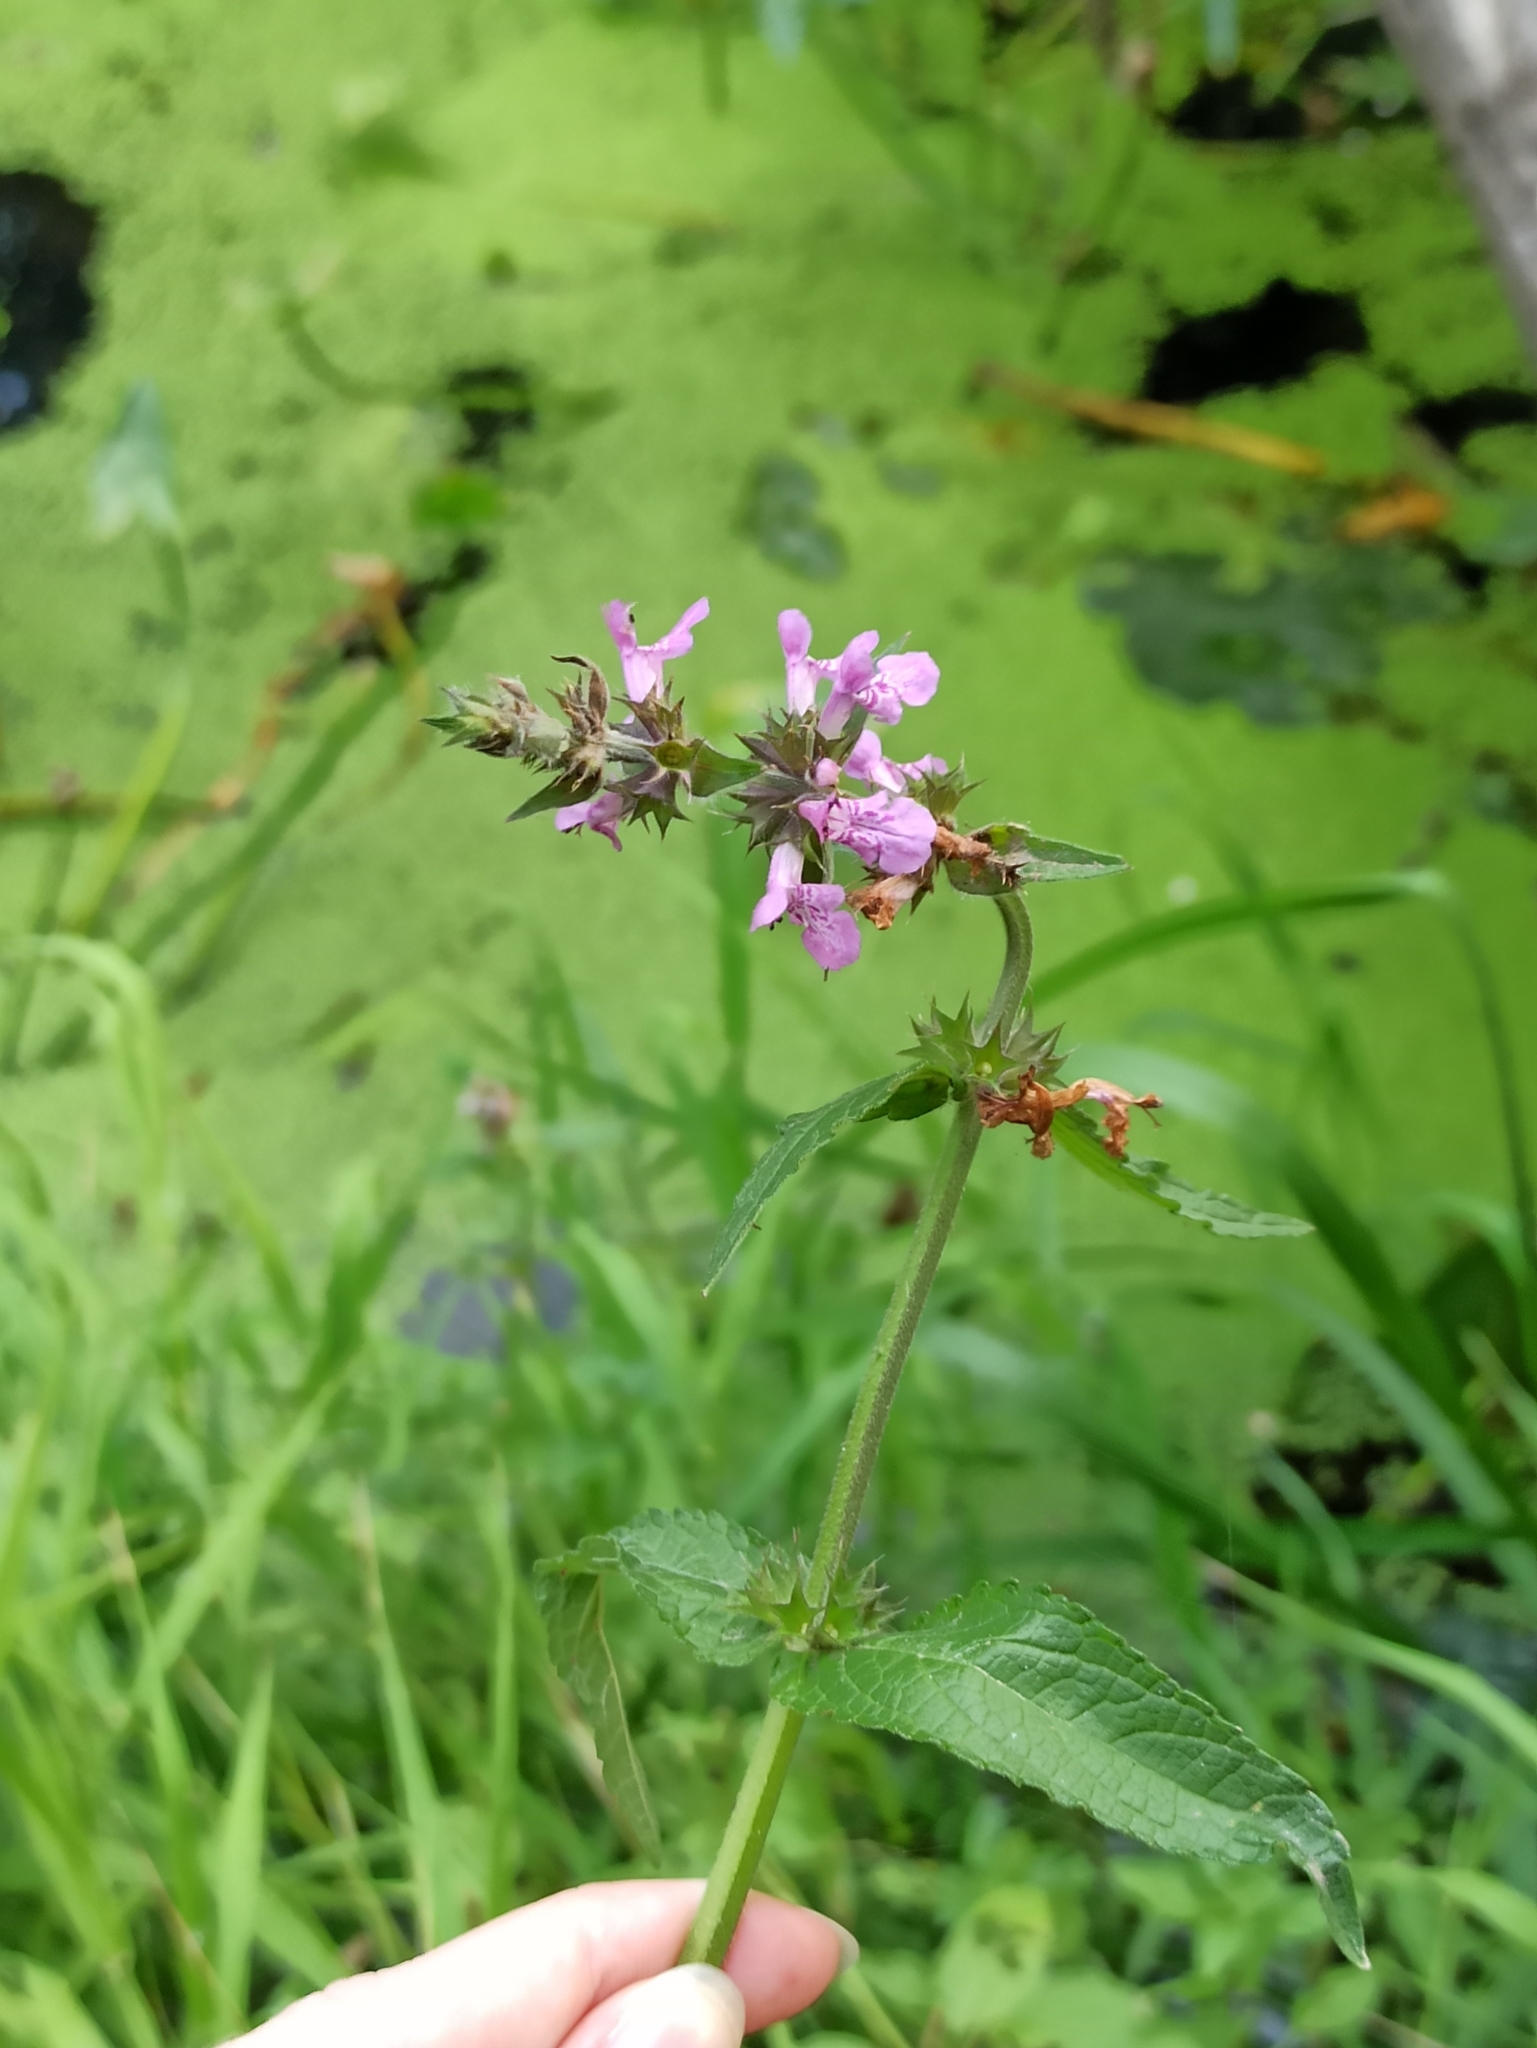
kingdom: Plantae
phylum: Tracheophyta
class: Magnoliopsida
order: Lamiales
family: Lamiaceae
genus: Stachys
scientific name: Stachys palustris
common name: Marsh woundwort
